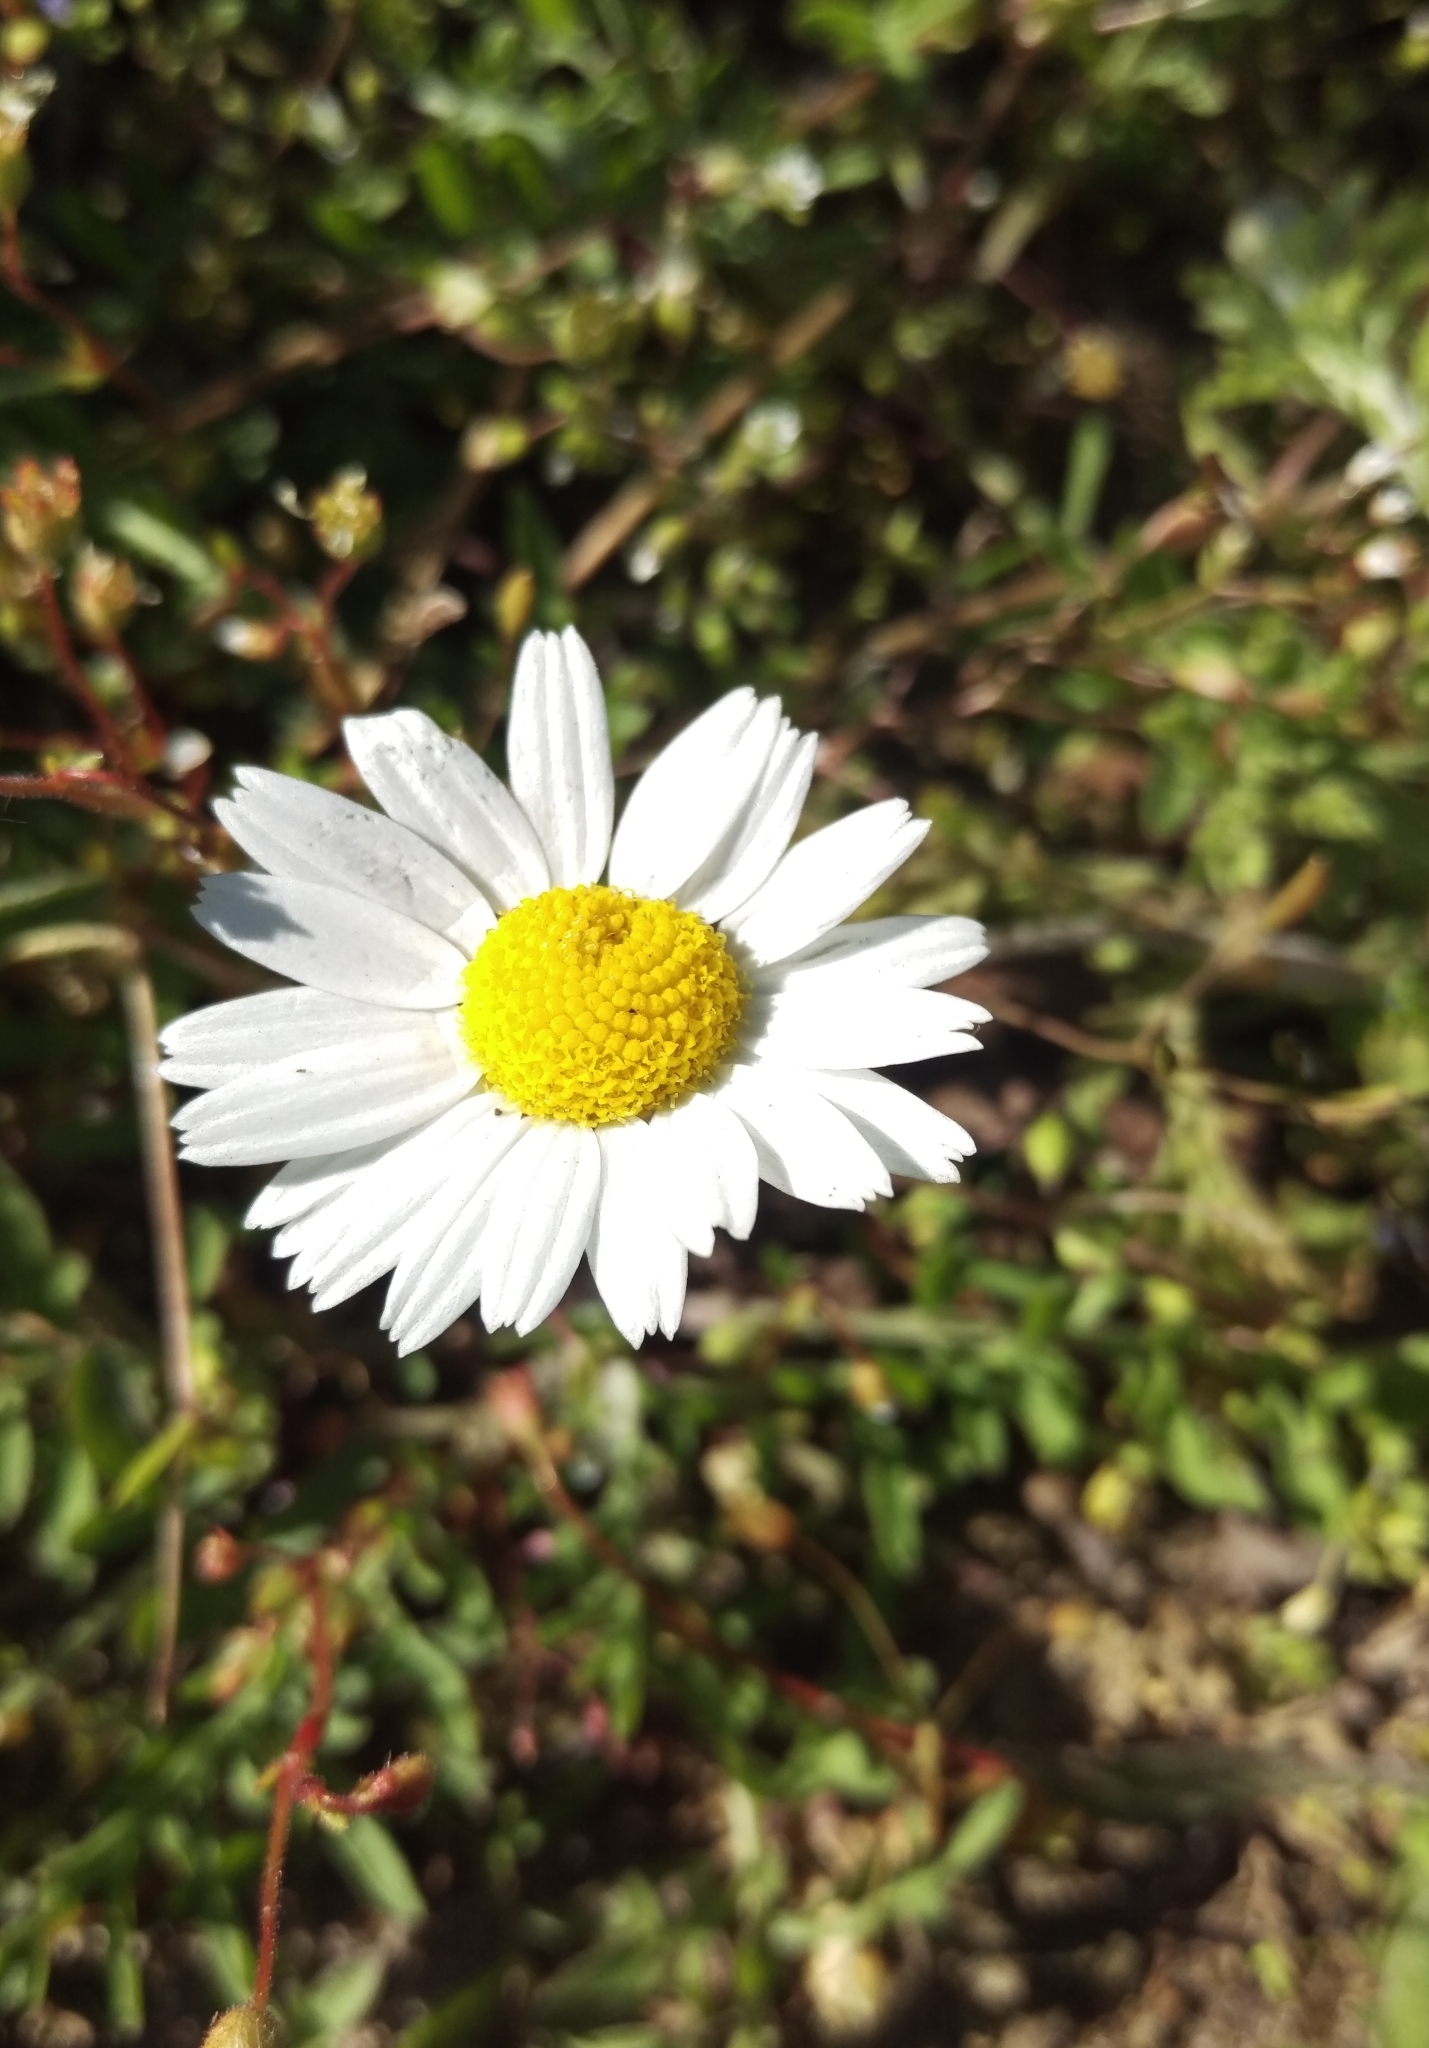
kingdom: Plantae
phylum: Tracheophyta
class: Magnoliopsida
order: Asterales
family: Asteraceae
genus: Leucanthemum
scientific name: Leucanthemum vulgare
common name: Oxeye daisy
